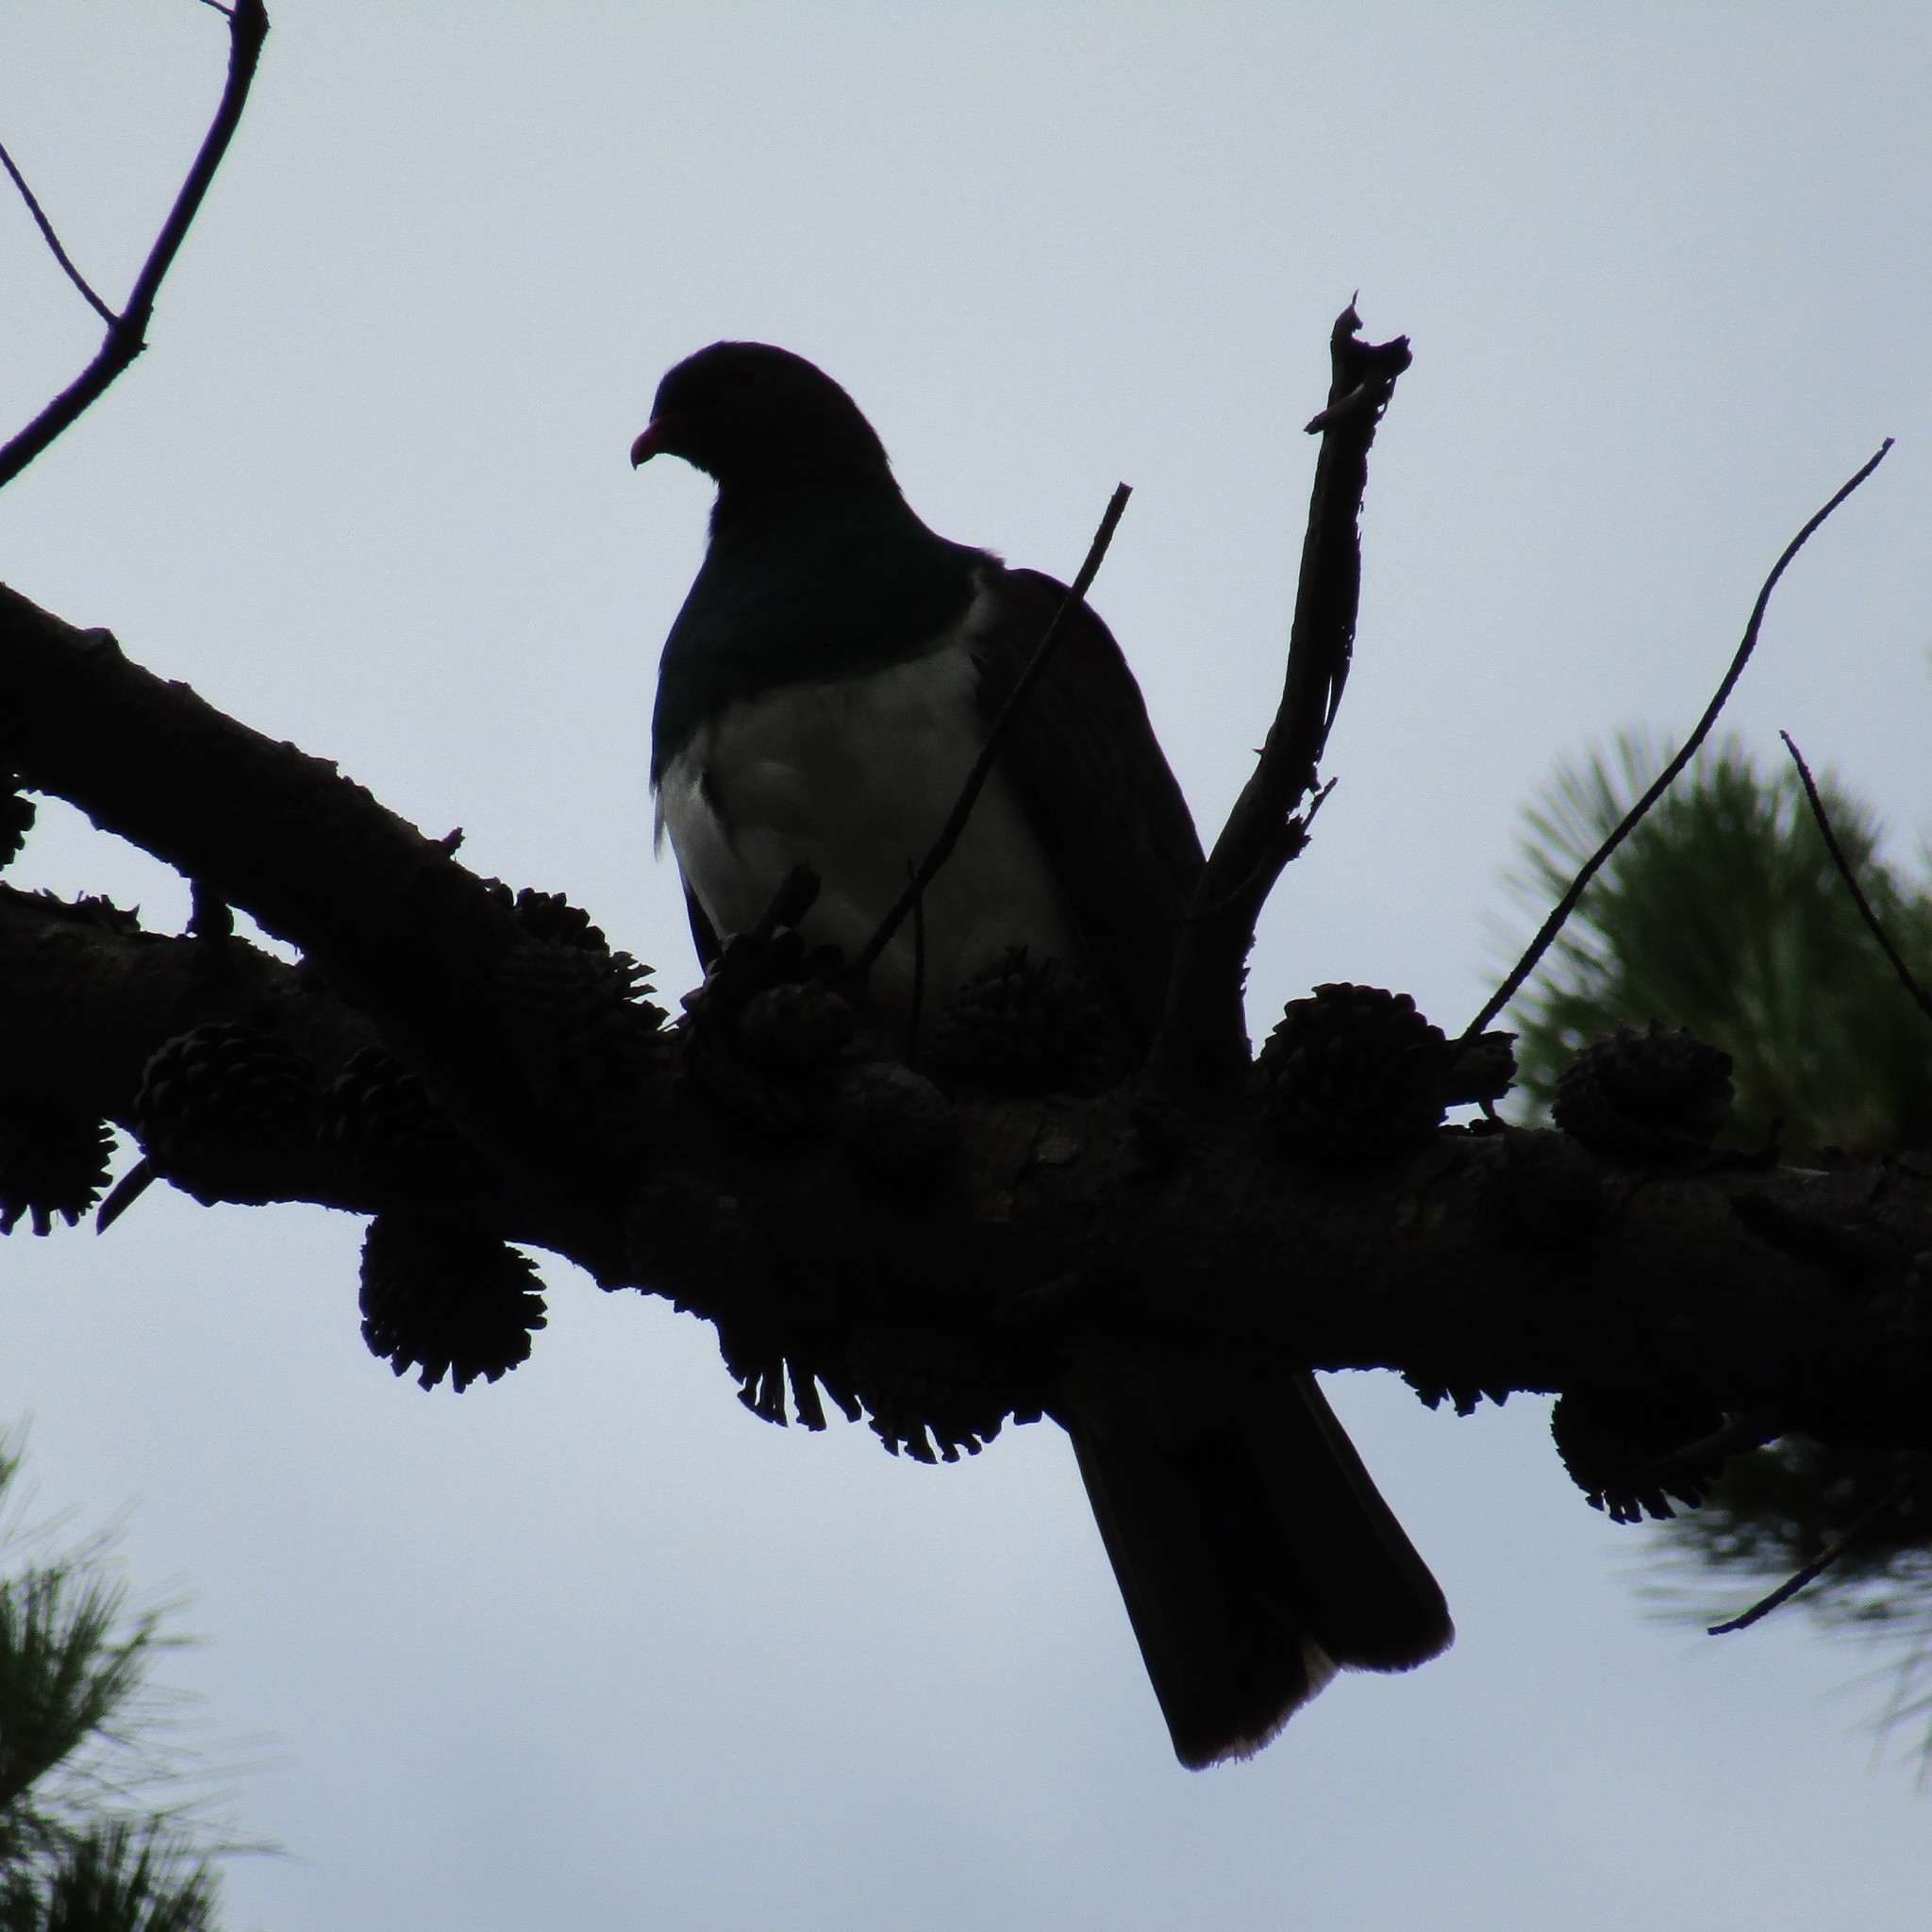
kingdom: Animalia
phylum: Chordata
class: Aves
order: Columbiformes
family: Columbidae
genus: Hemiphaga
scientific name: Hemiphaga novaeseelandiae
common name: New zealand pigeon
